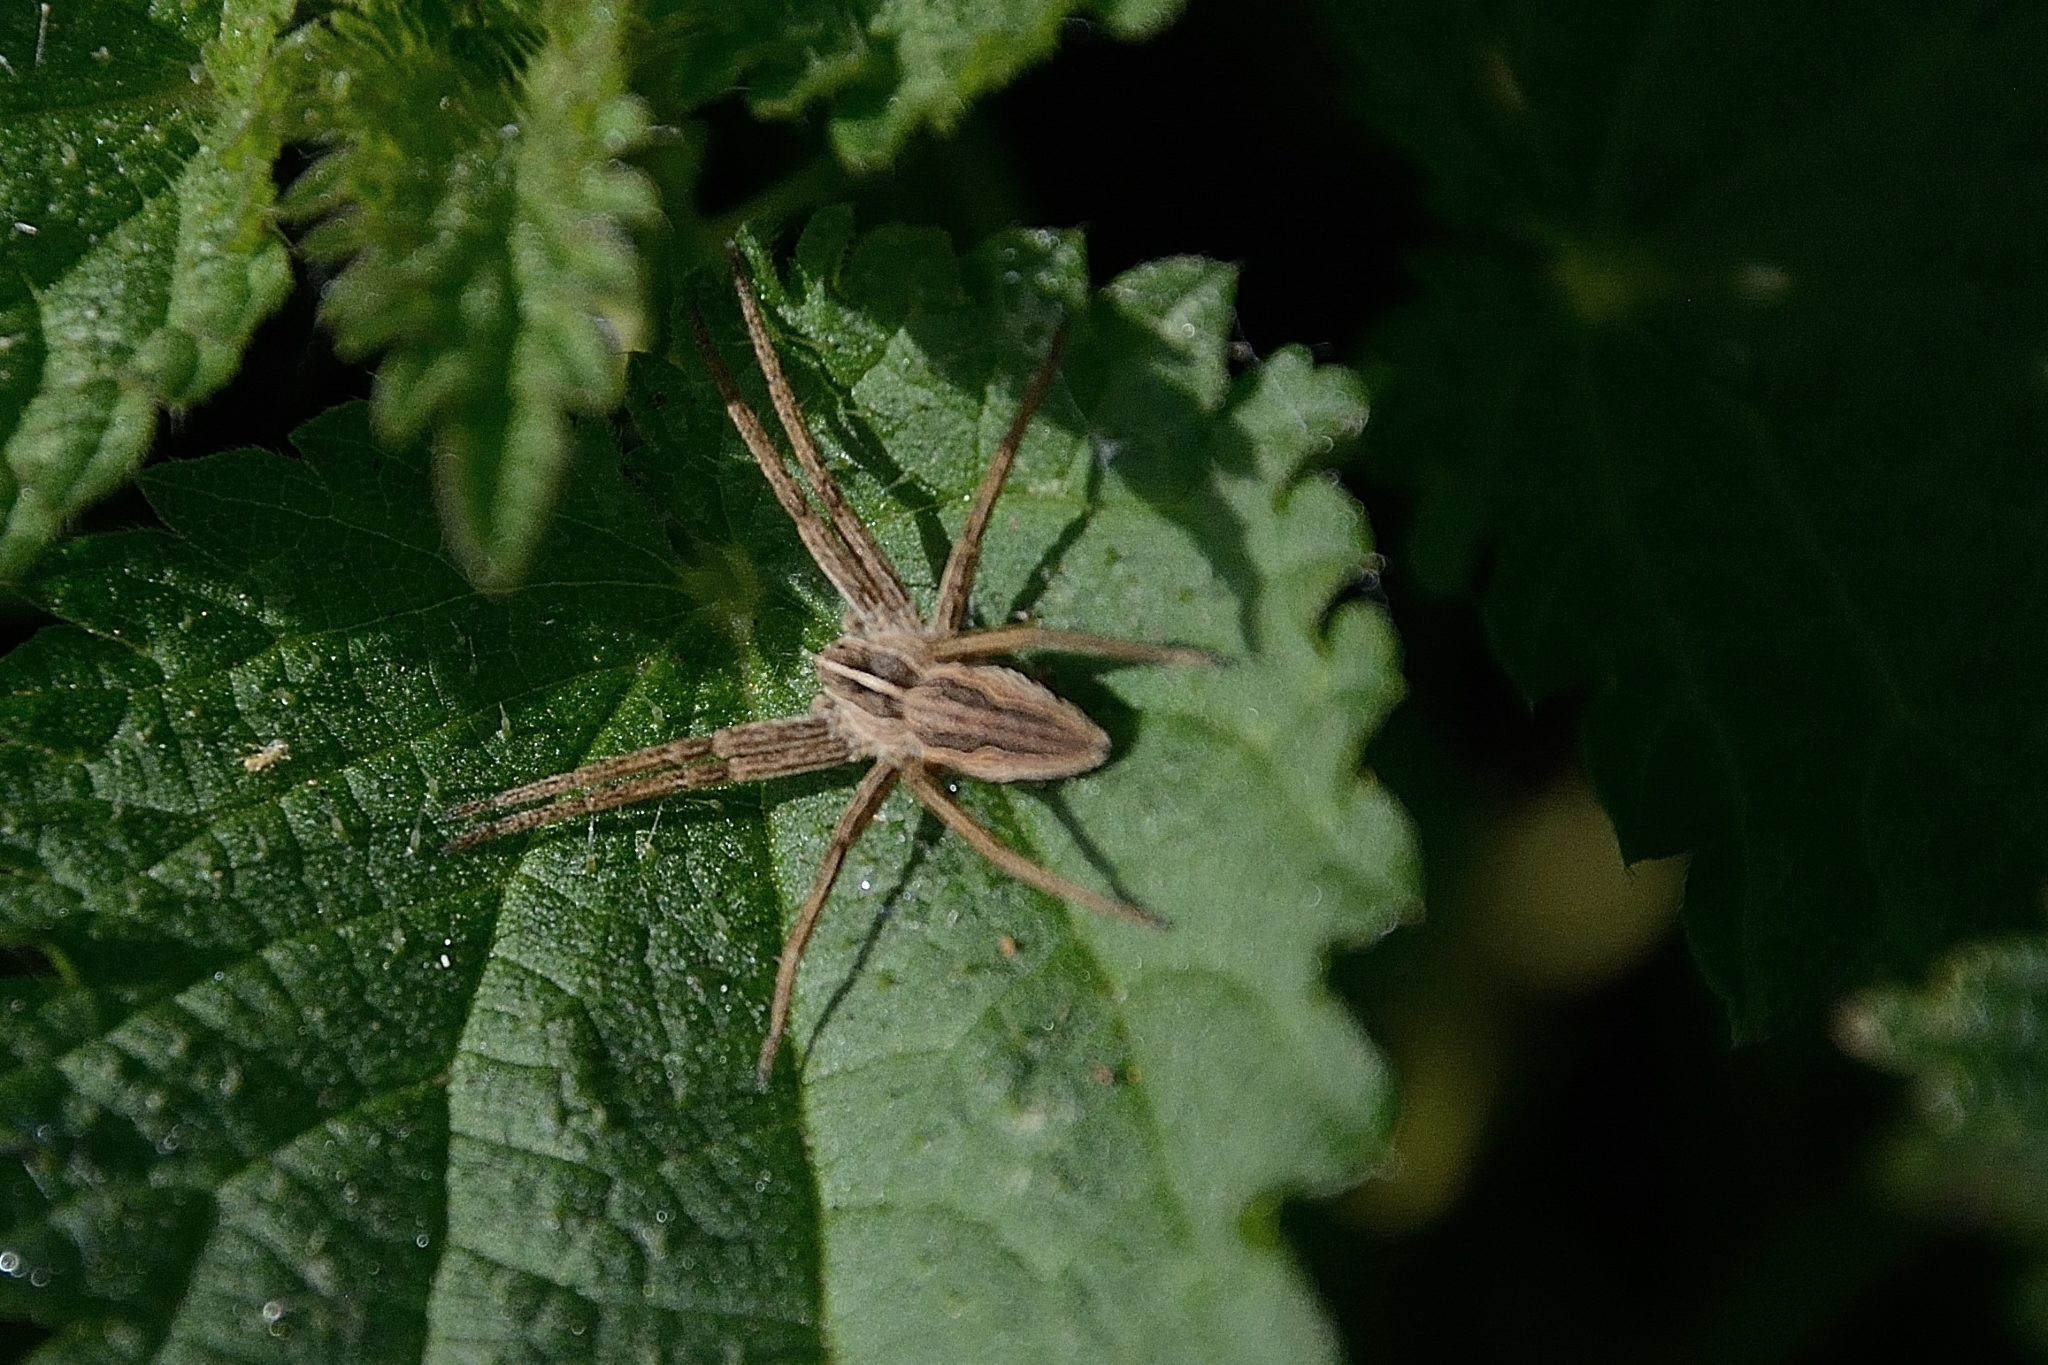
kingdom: Animalia
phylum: Arthropoda
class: Arachnida
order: Araneae
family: Pisauridae
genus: Pisaura
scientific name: Pisaura mirabilis
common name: Tent spider
